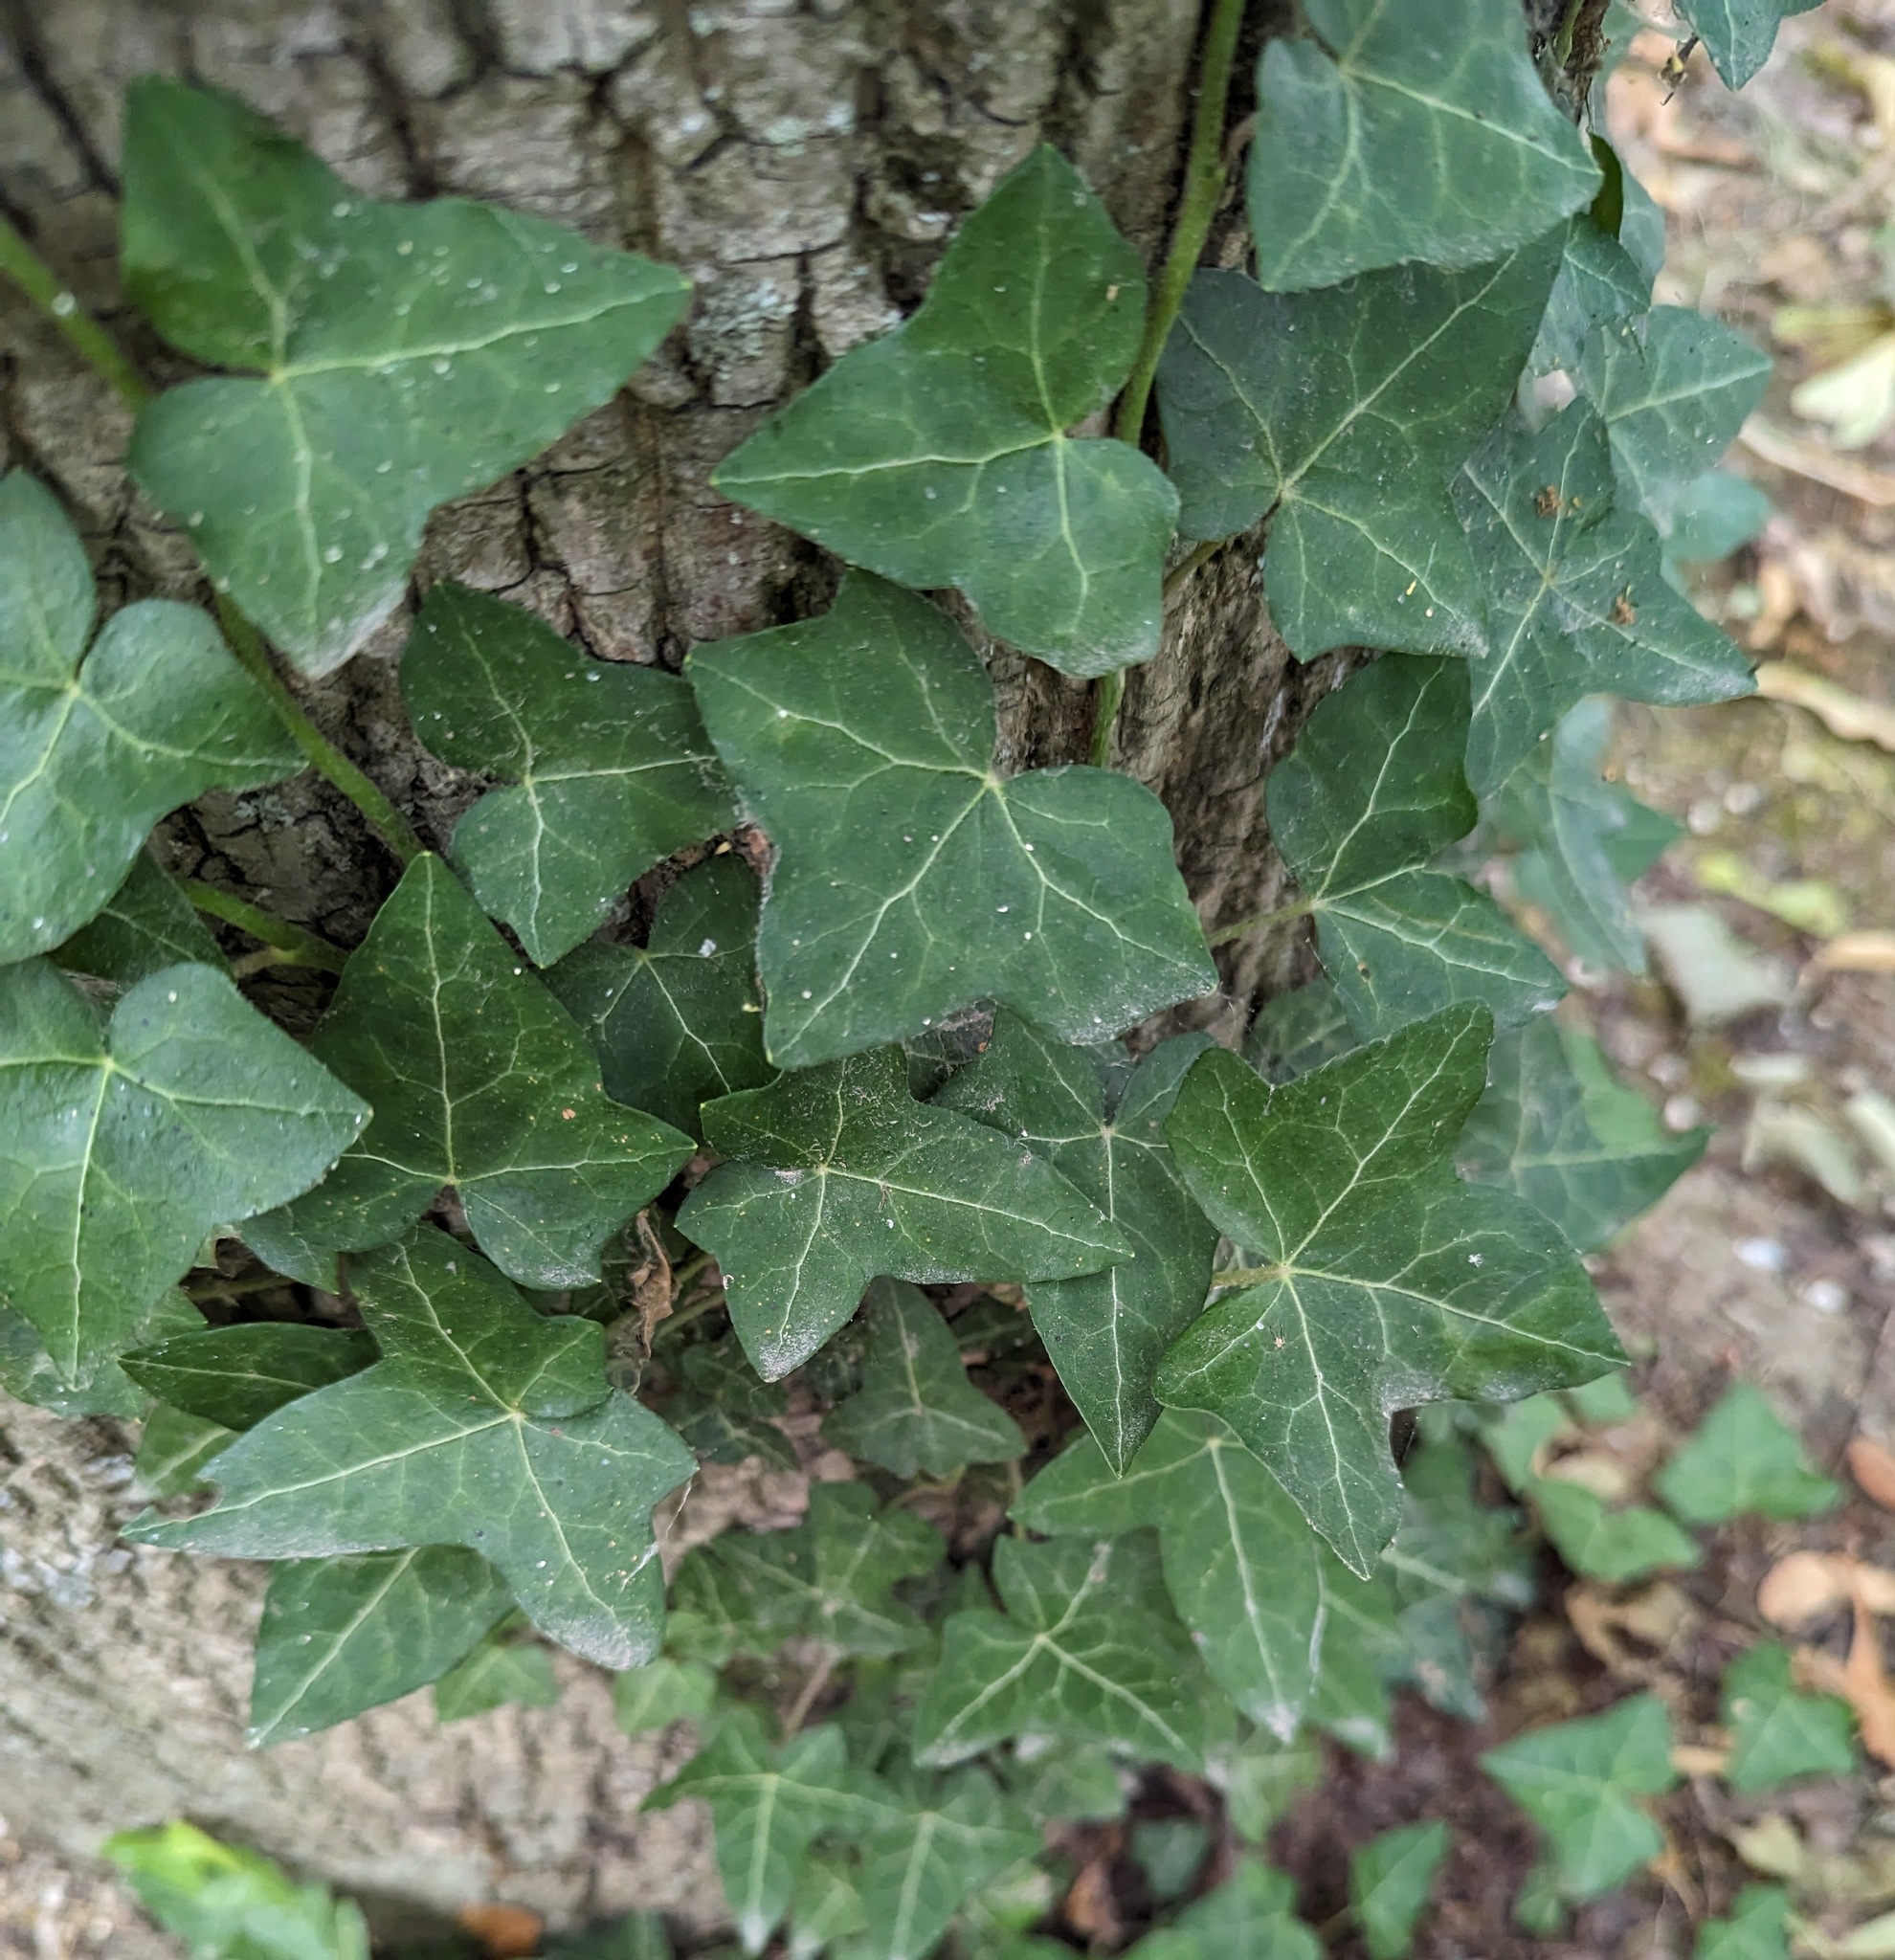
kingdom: Plantae
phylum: Tracheophyta
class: Magnoliopsida
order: Apiales
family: Araliaceae
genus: Hedera
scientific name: Hedera helix
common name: Ivy
